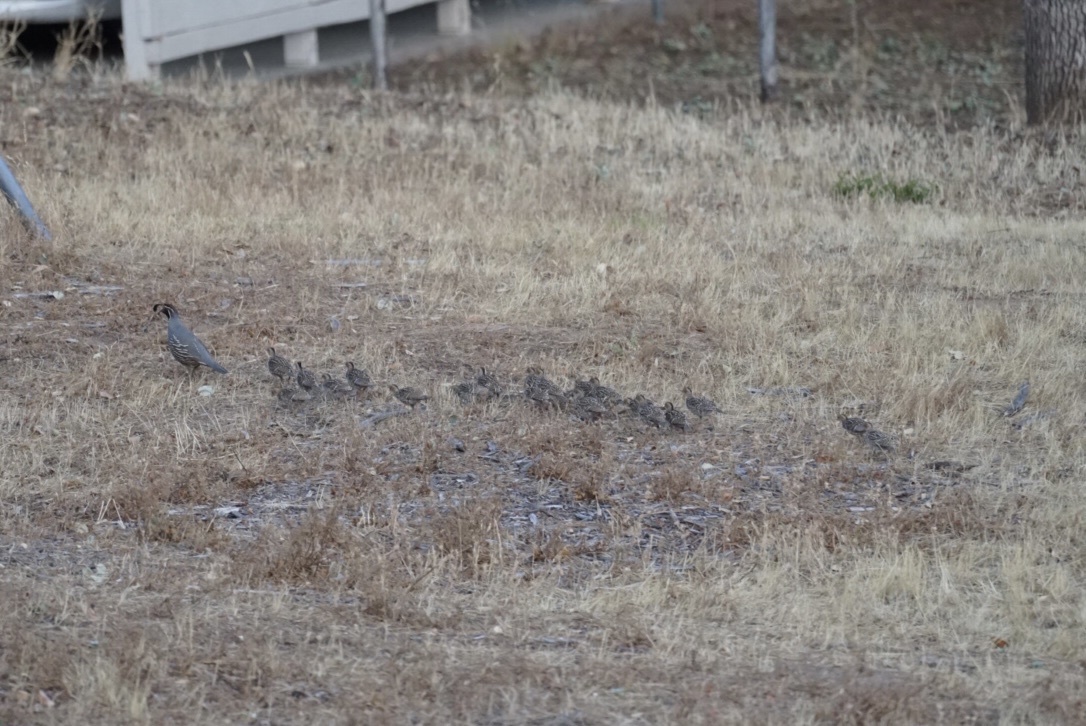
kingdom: Animalia
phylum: Chordata
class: Aves
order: Galliformes
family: Odontophoridae
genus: Callipepla
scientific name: Callipepla californica
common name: California quail
